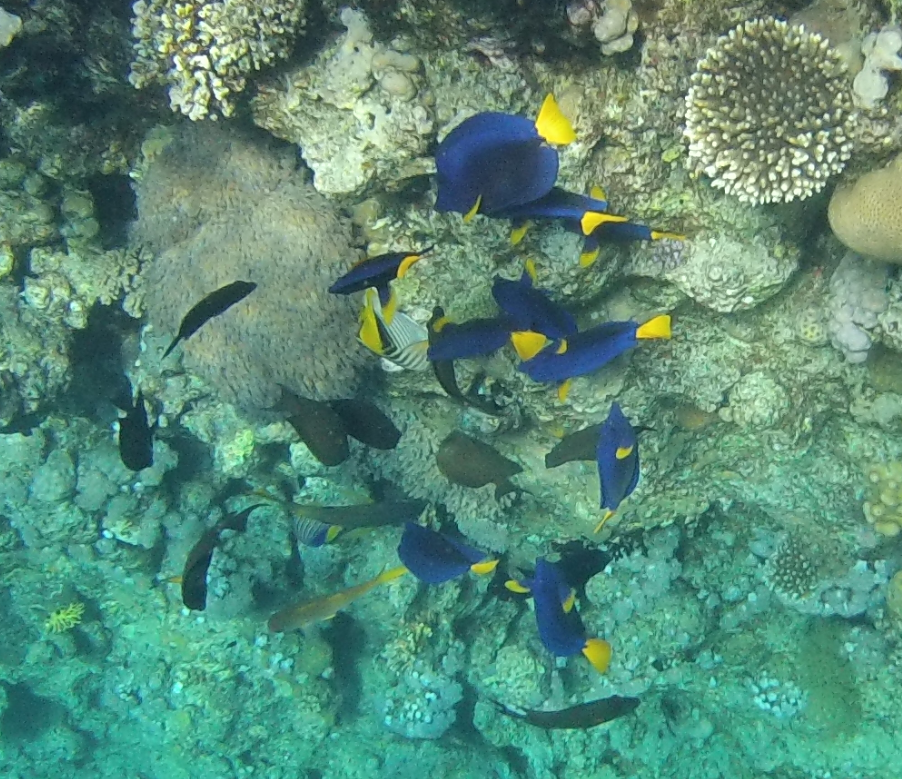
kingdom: Animalia
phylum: Chordata
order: Perciformes
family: Acanthuridae
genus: Zebrasoma
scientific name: Zebrasoma xanthurum
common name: Purple tang
